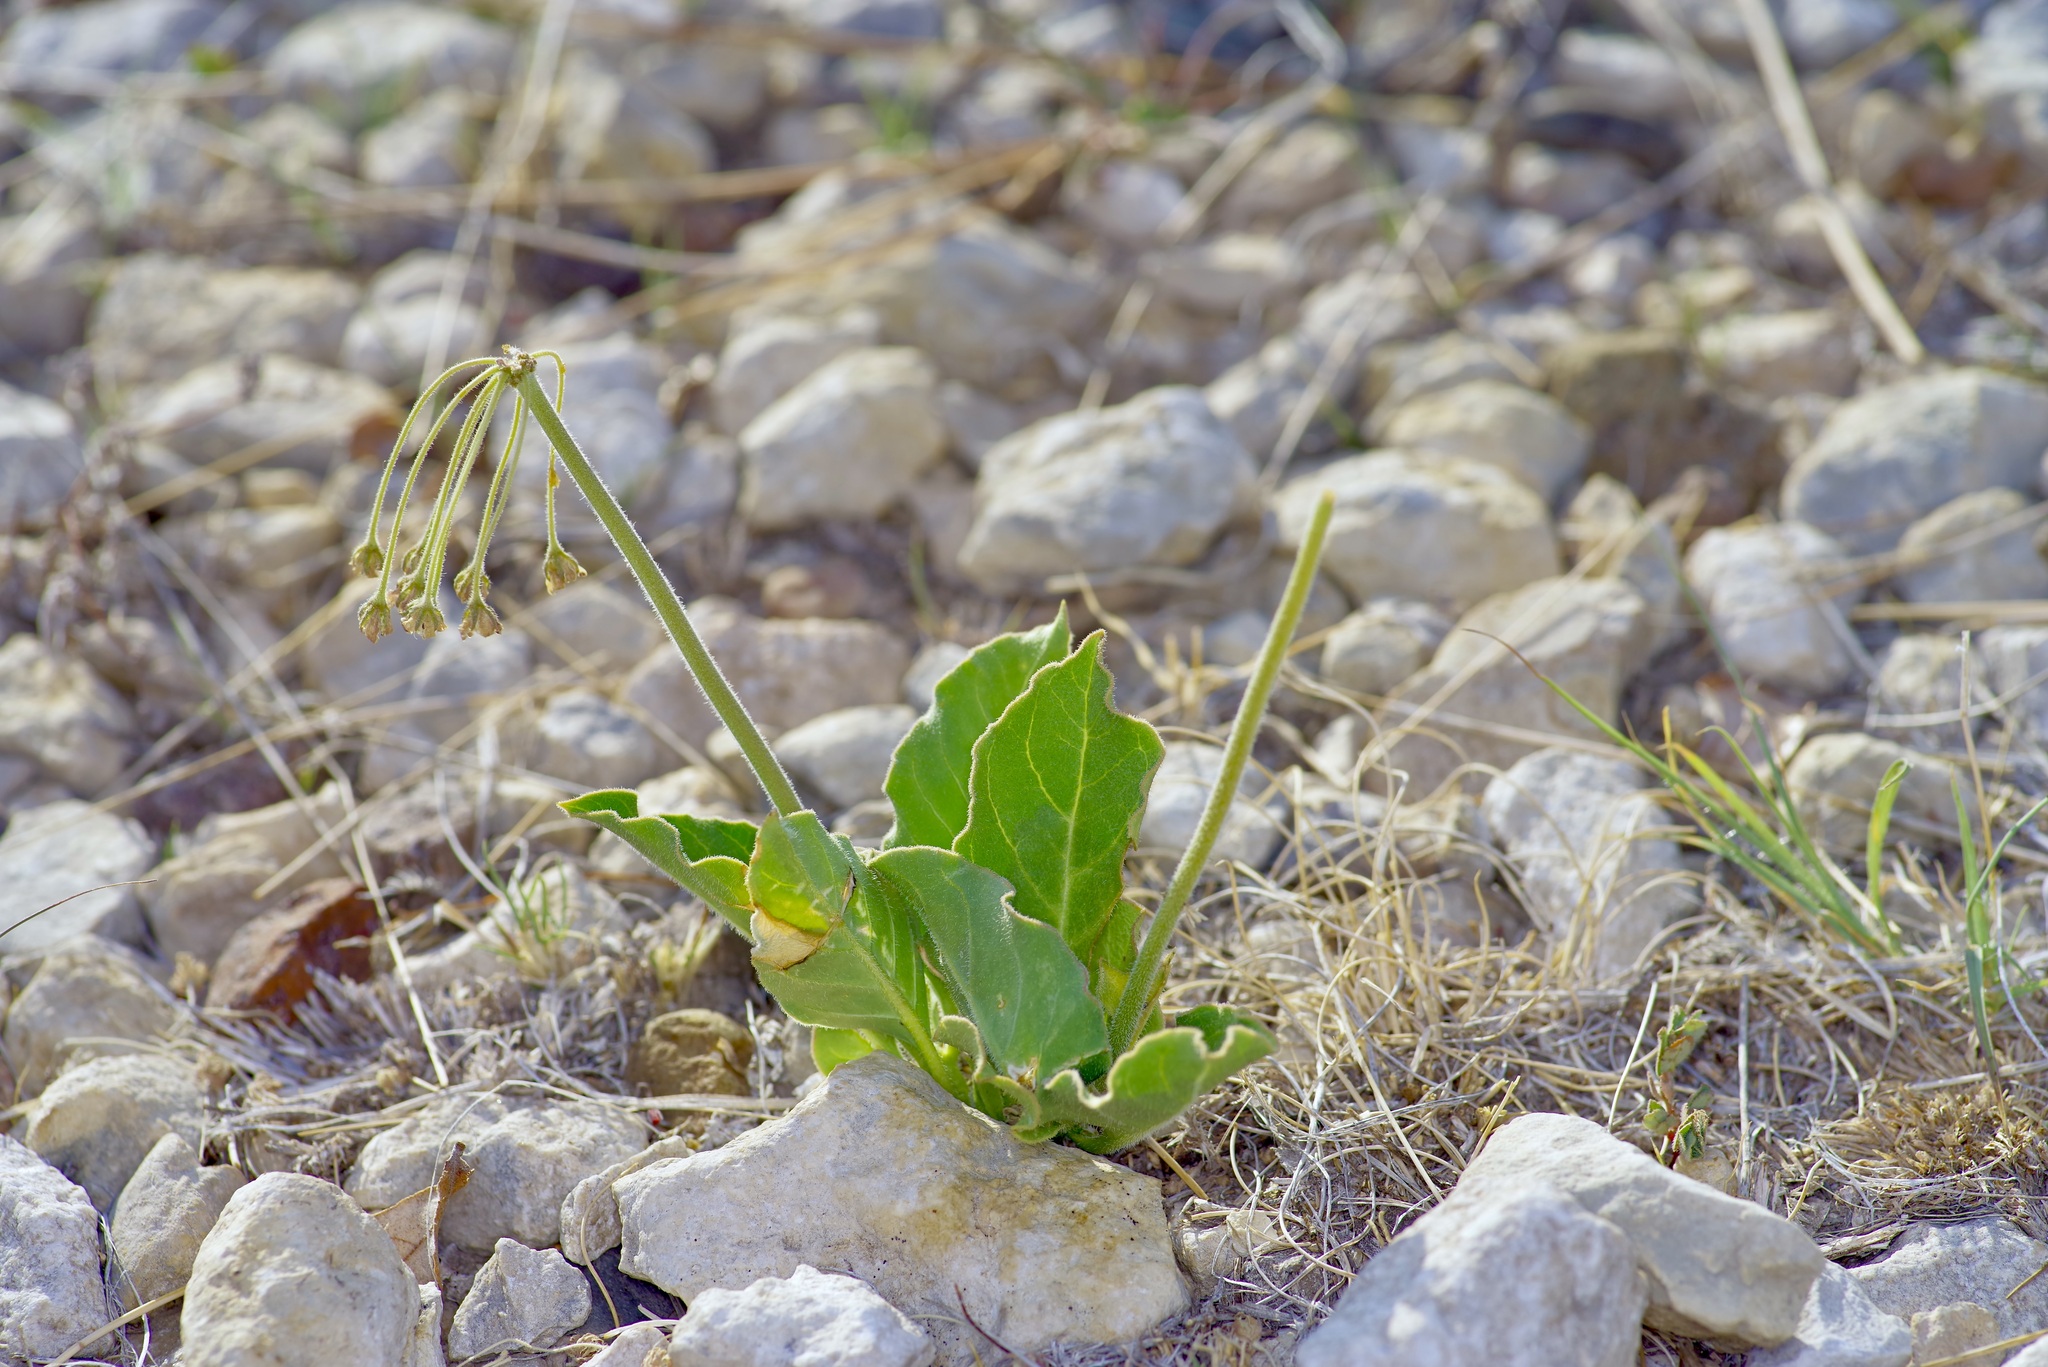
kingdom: Plantae
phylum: Tracheophyta
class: Magnoliopsida
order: Gentianales
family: Apocynaceae
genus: Asclepias
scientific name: Asclepias scaposa
